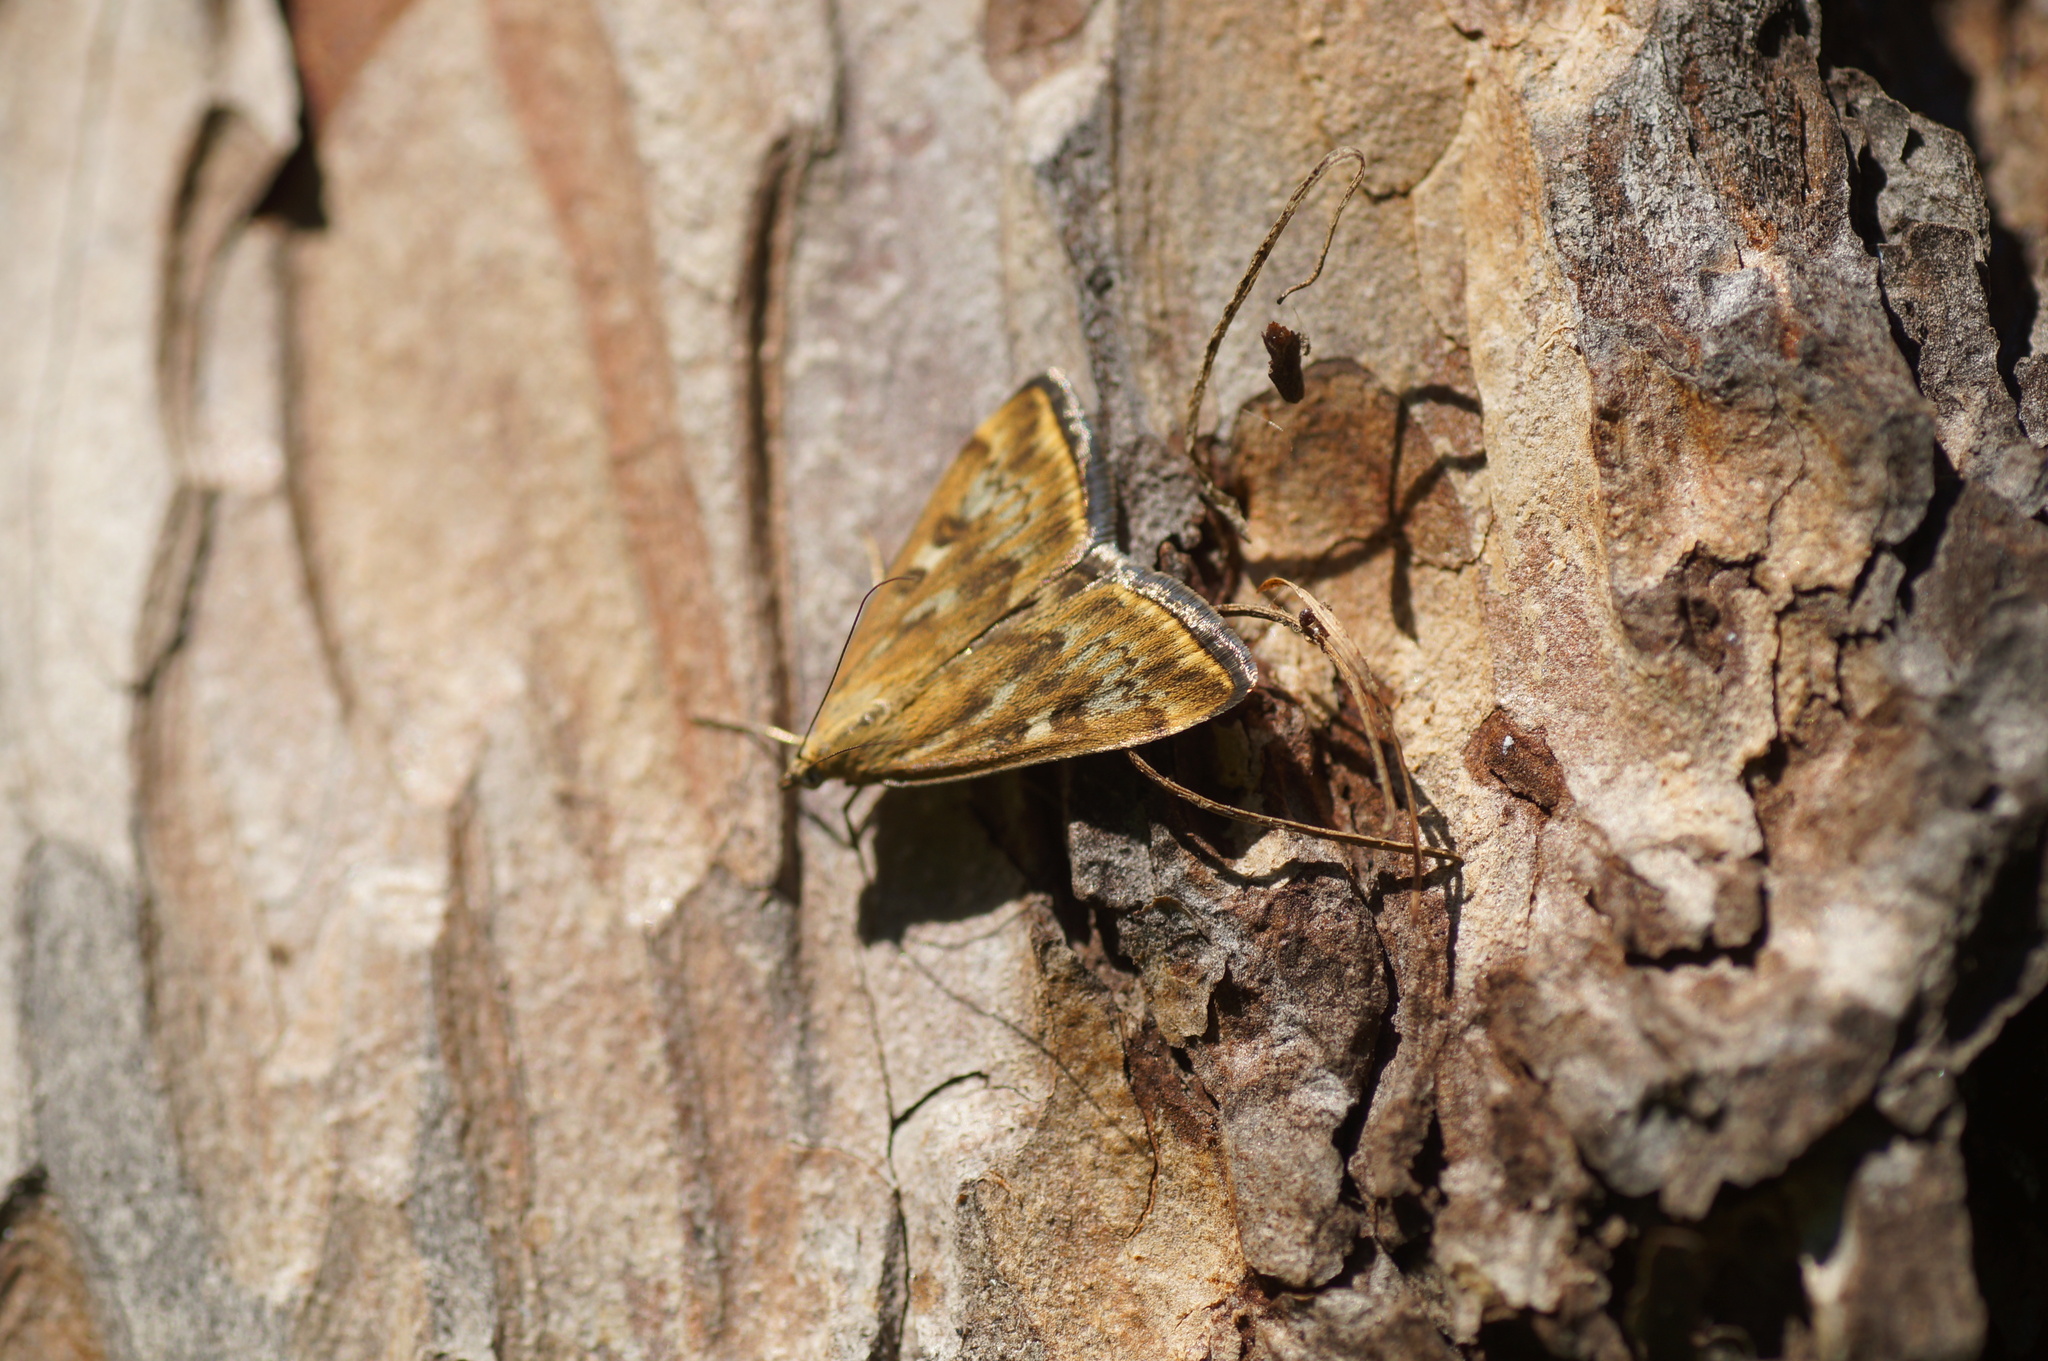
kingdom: Animalia
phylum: Arthropoda
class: Insecta
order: Lepidoptera
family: Crambidae
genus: Loxostege
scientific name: Loxostege sticticalis
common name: Crambid moth
